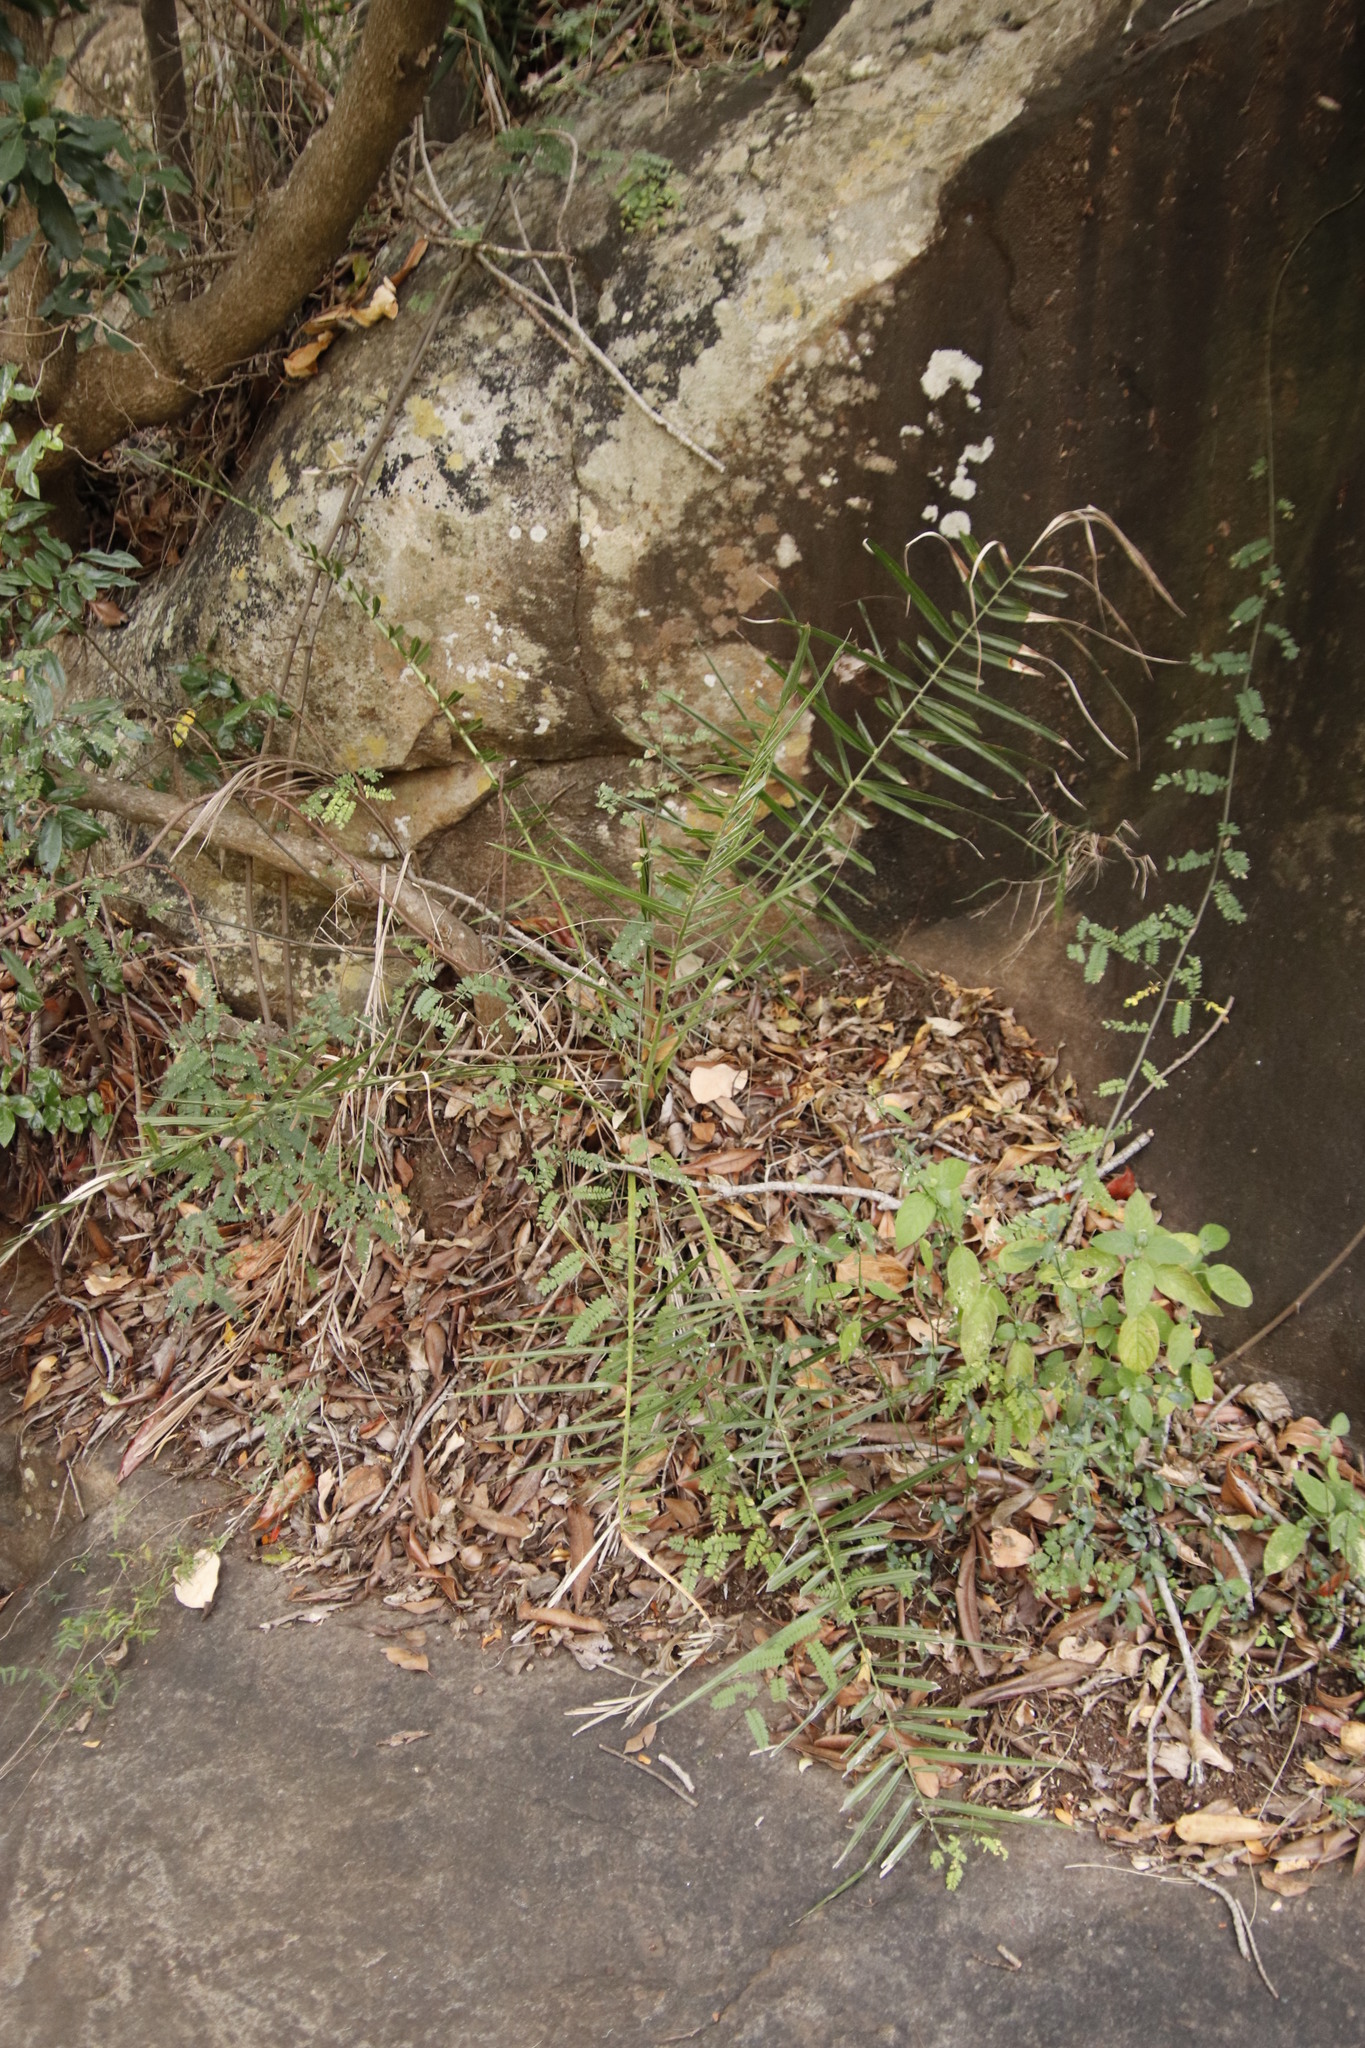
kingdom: Plantae
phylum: Tracheophyta
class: Liliopsida
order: Arecales
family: Arecaceae
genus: Phoenix
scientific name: Phoenix reclinata
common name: Senegal date palm
